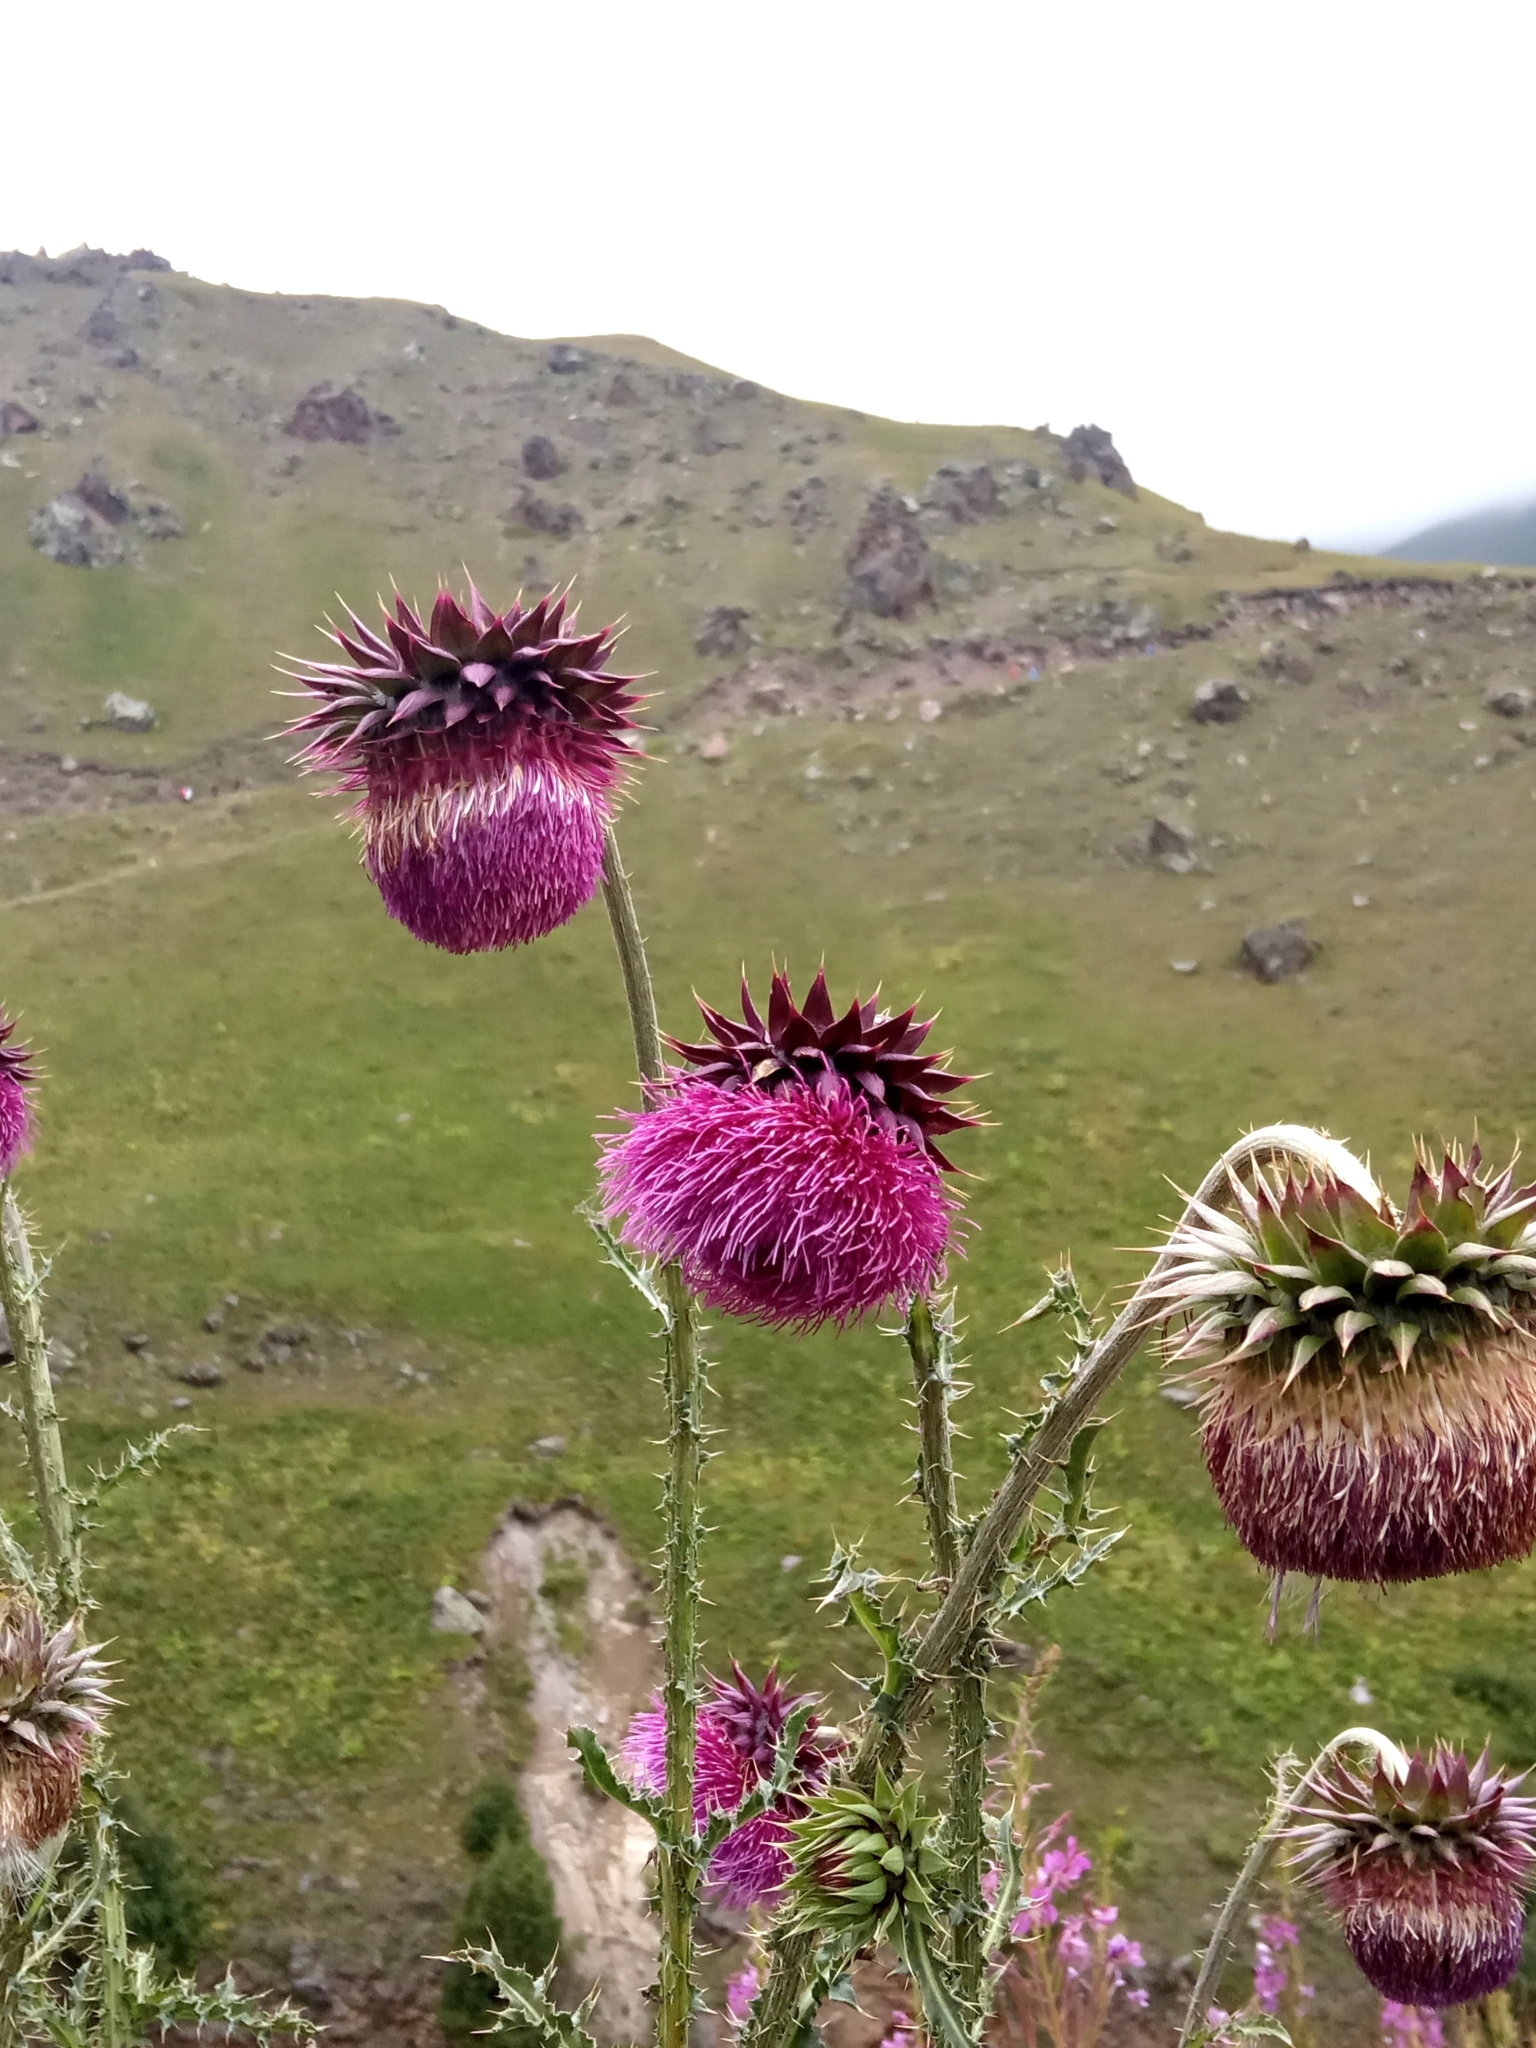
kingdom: Plantae
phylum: Tracheophyta
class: Magnoliopsida
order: Asterales
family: Asteraceae
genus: Carduus
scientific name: Carduus nutans
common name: Musk thistle
